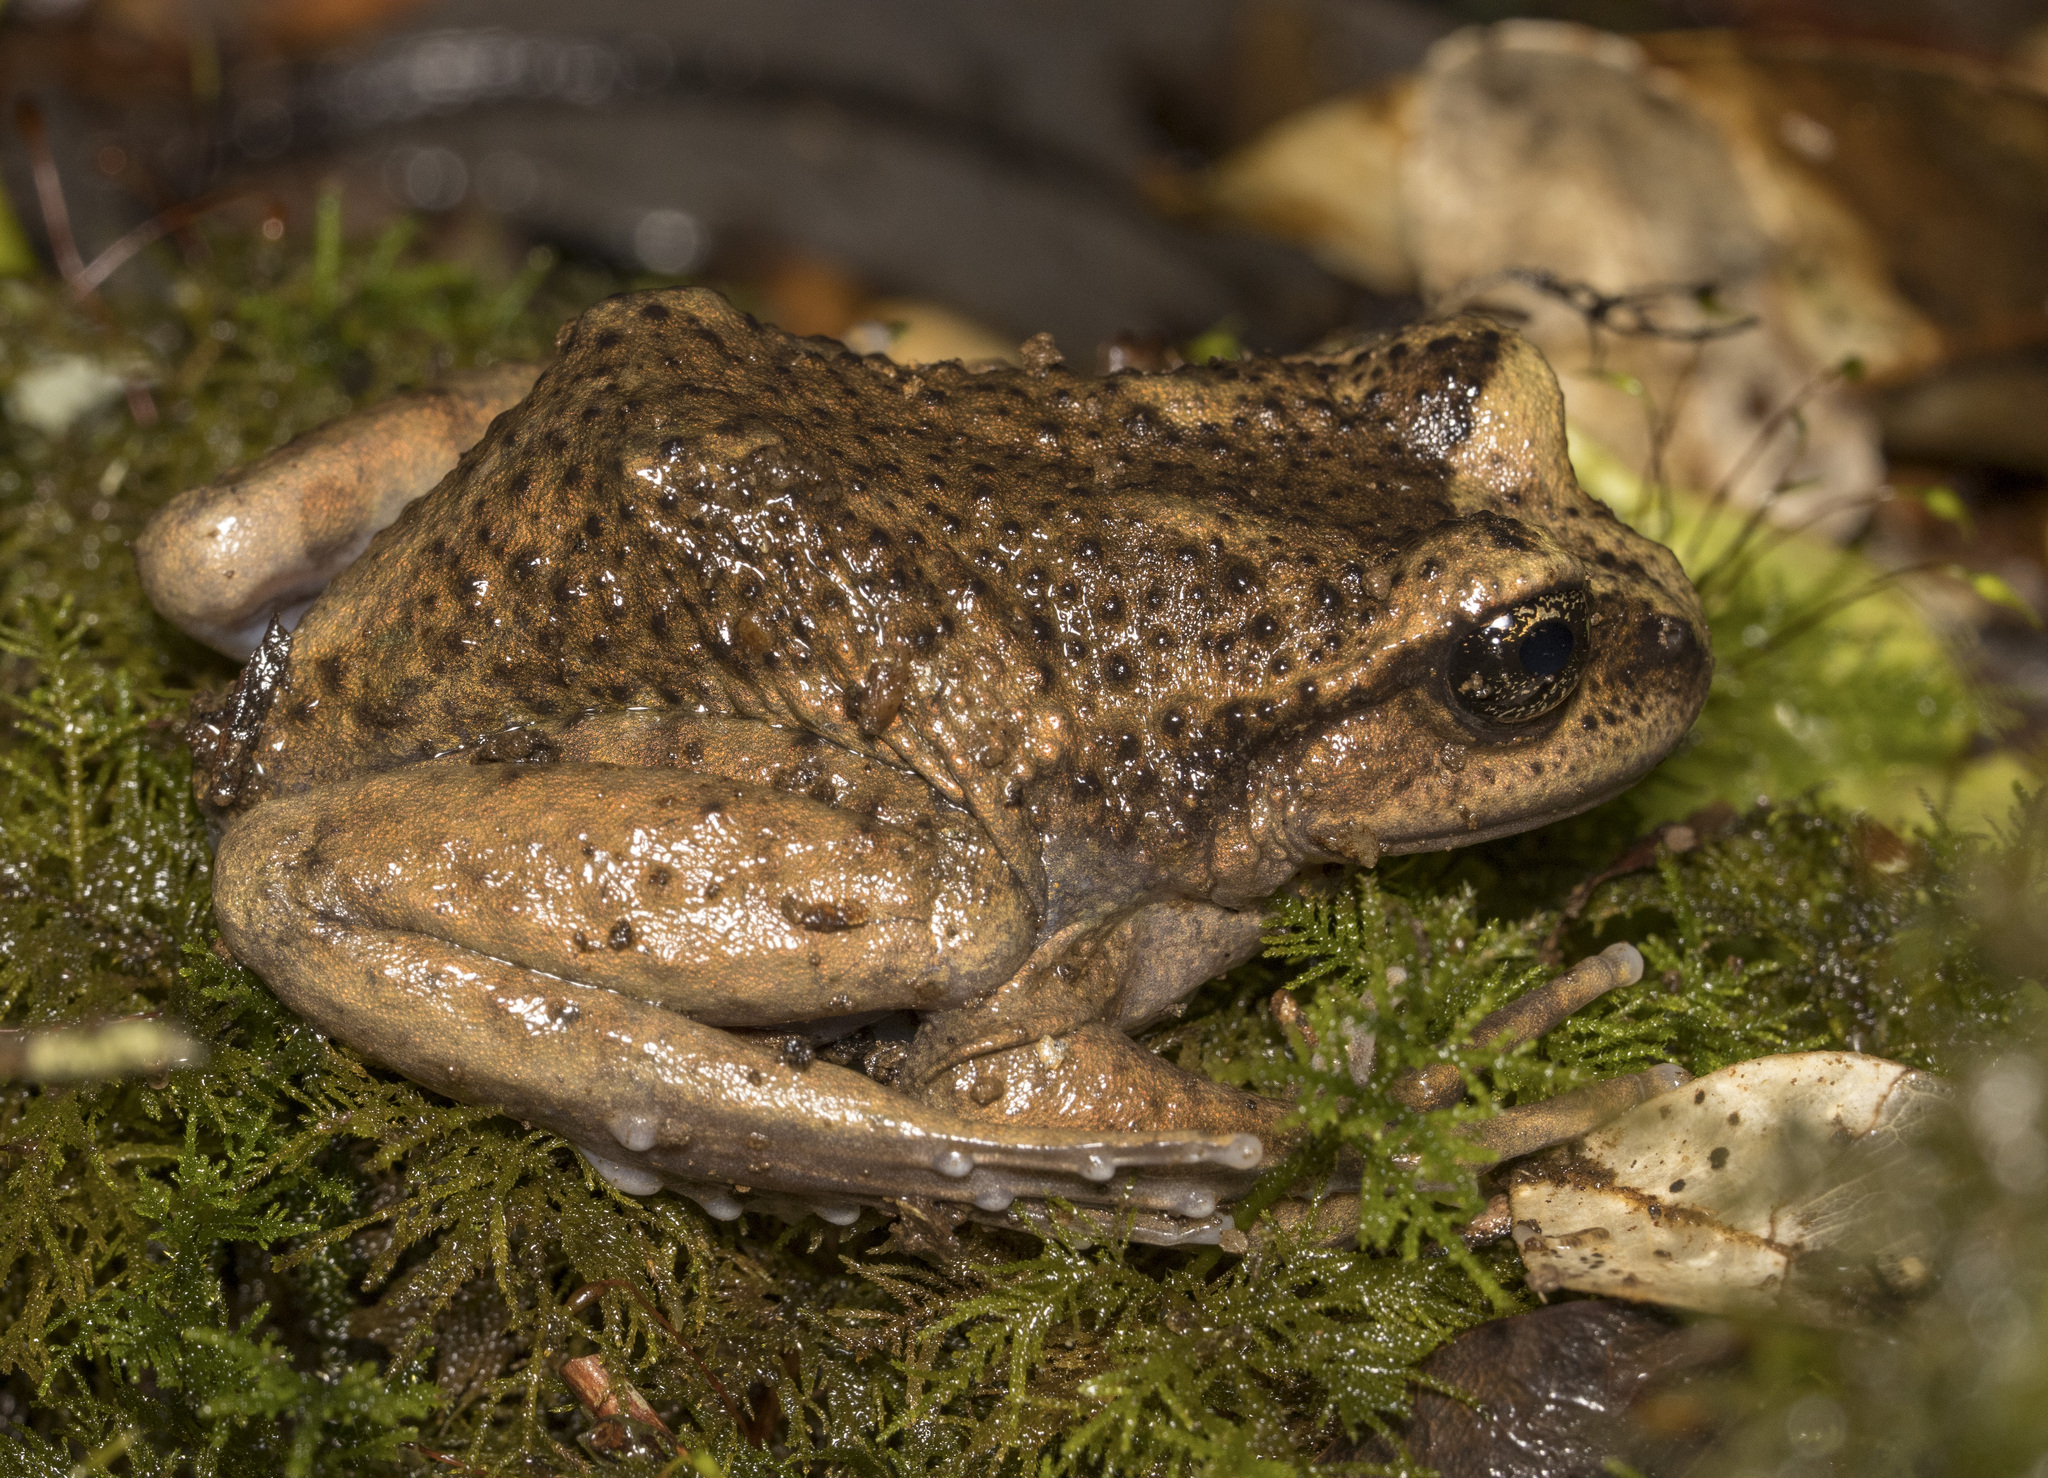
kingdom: Animalia
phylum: Chordata
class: Amphibia
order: Anura
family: Alsodidae
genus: Alsodes
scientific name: Alsodes valdiviensis
